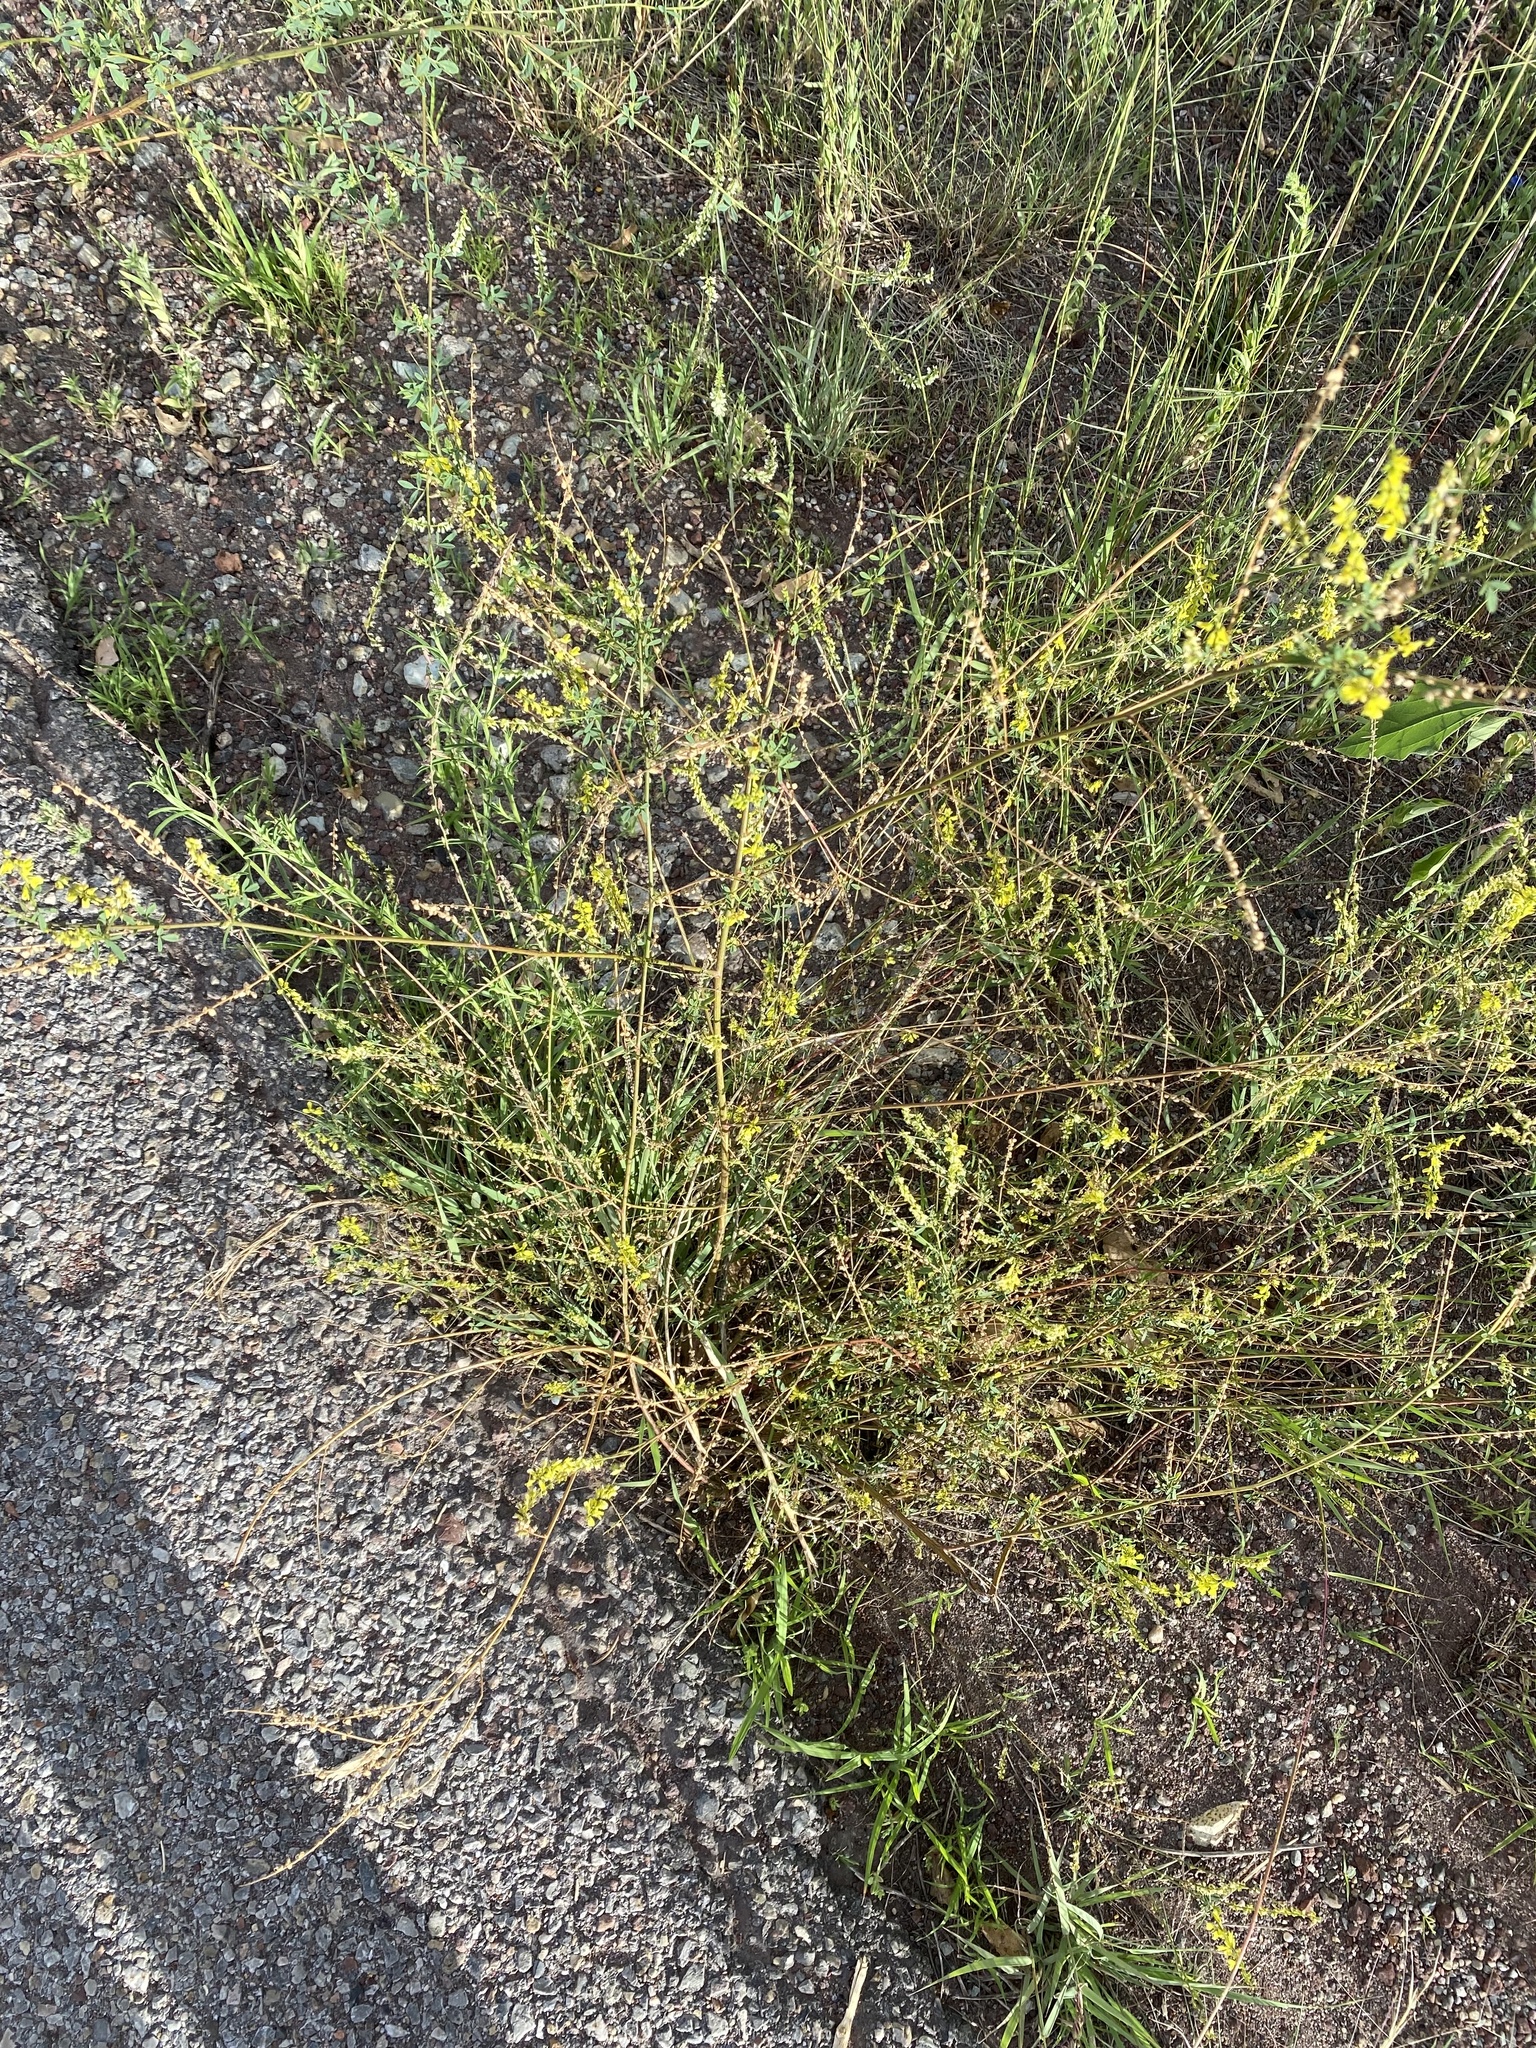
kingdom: Plantae
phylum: Tracheophyta
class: Magnoliopsida
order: Fabales
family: Fabaceae
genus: Melilotus
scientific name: Melilotus officinalis
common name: Sweetclover
